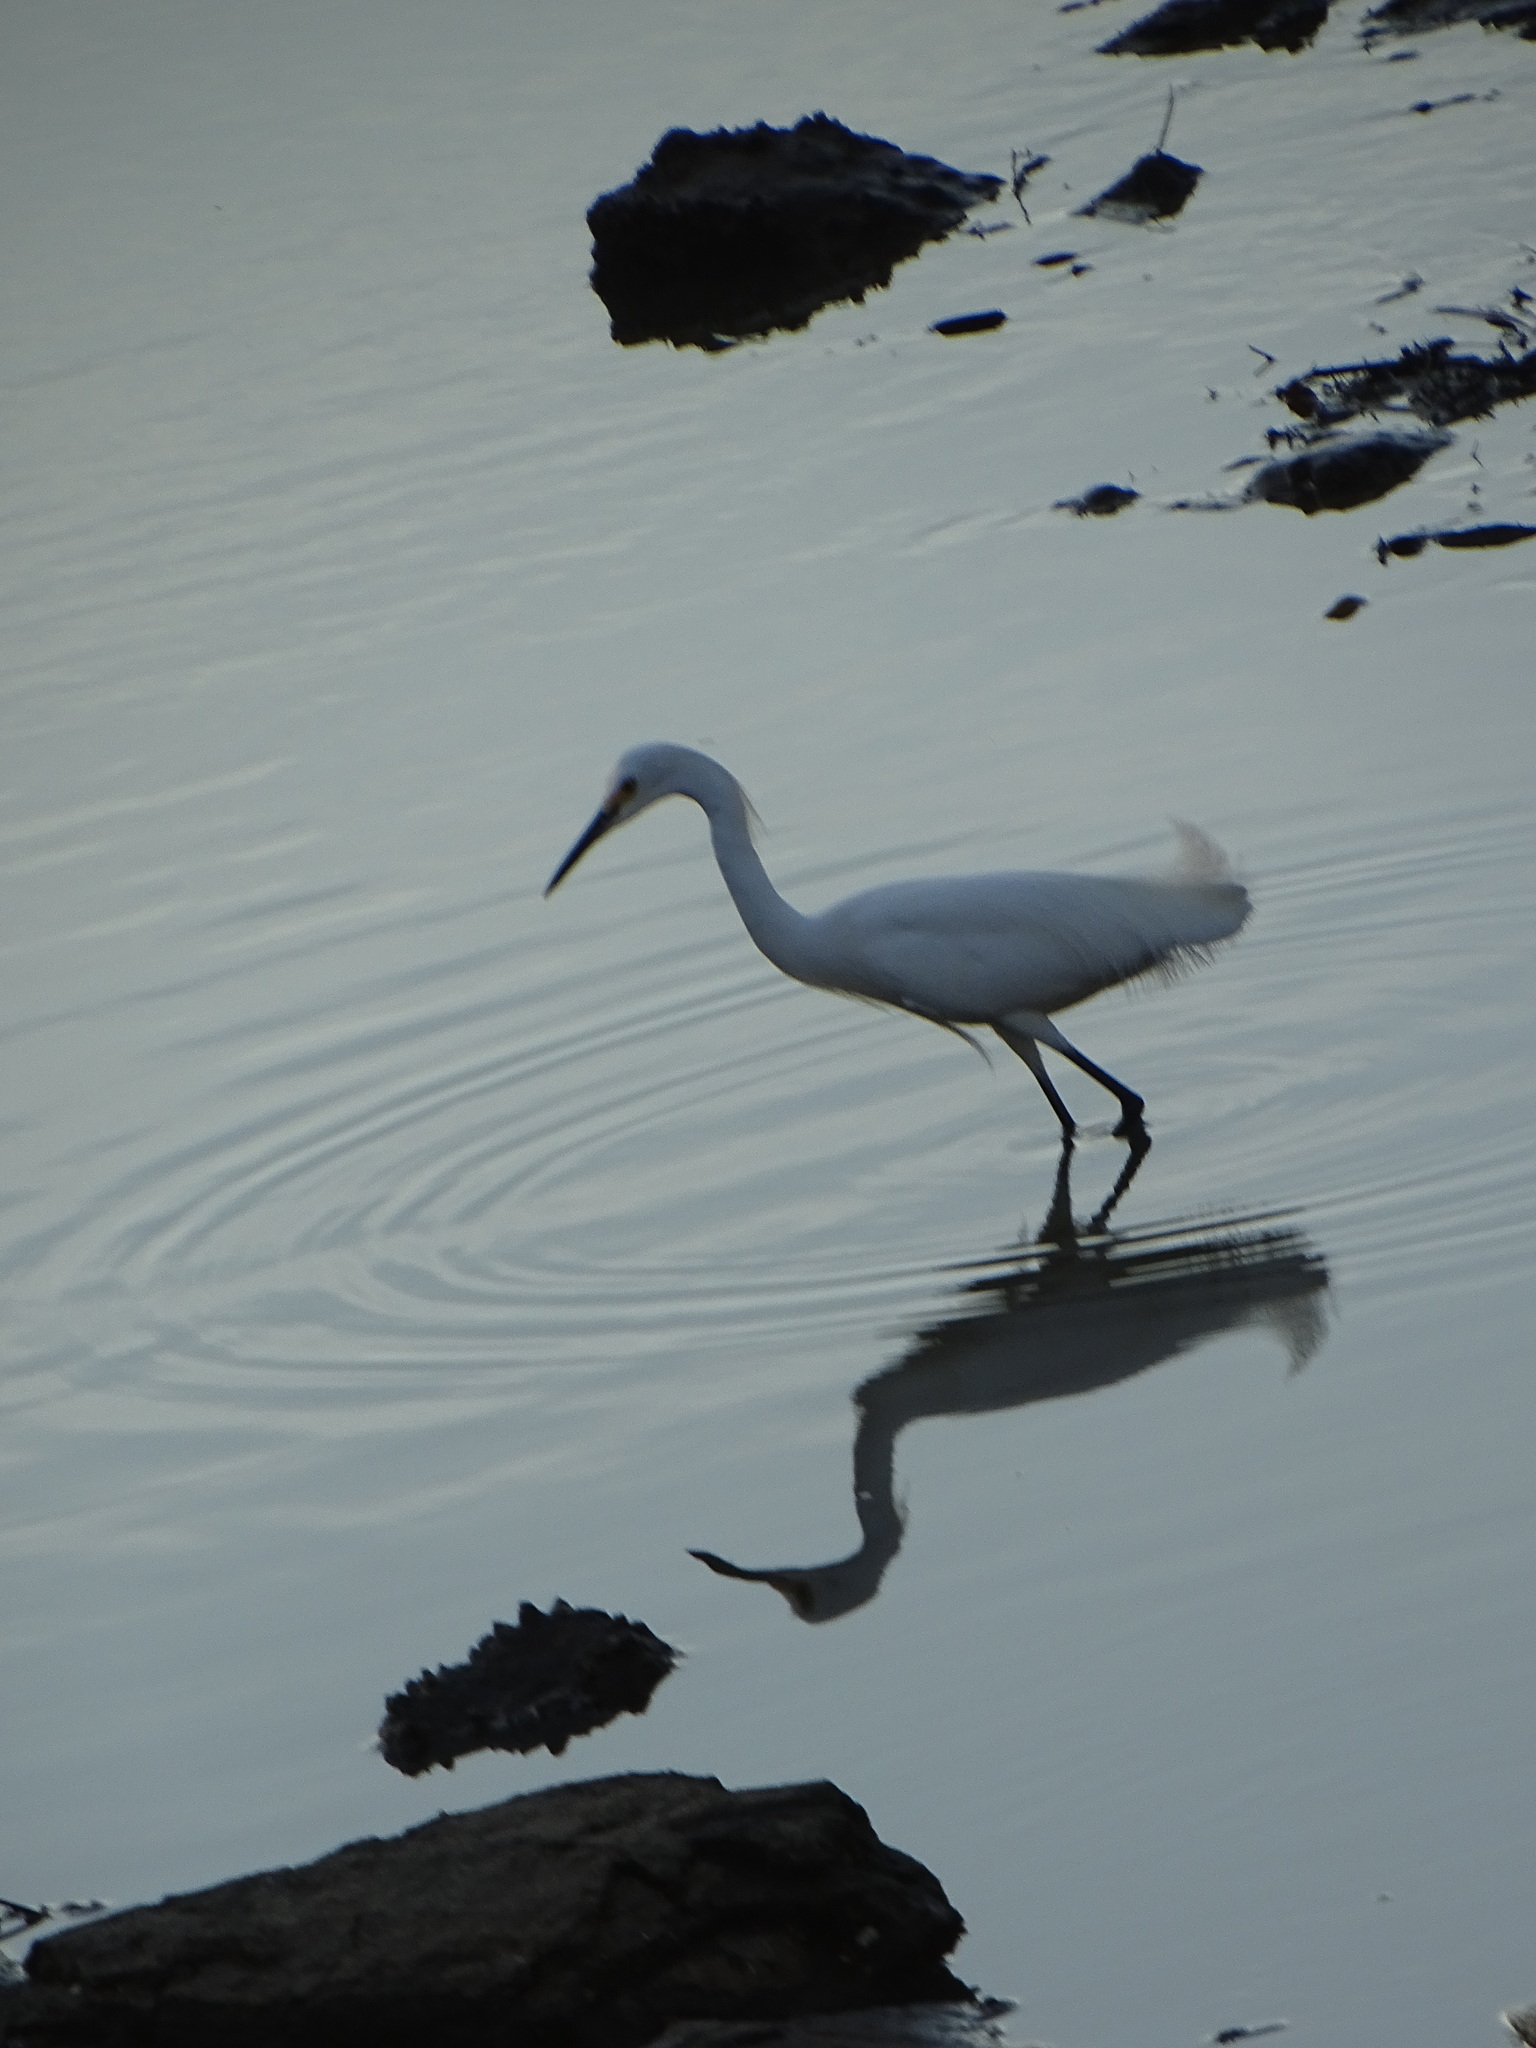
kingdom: Animalia
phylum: Chordata
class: Aves
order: Pelecaniformes
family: Ardeidae
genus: Egretta
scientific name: Egretta thula
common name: Snowy egret
